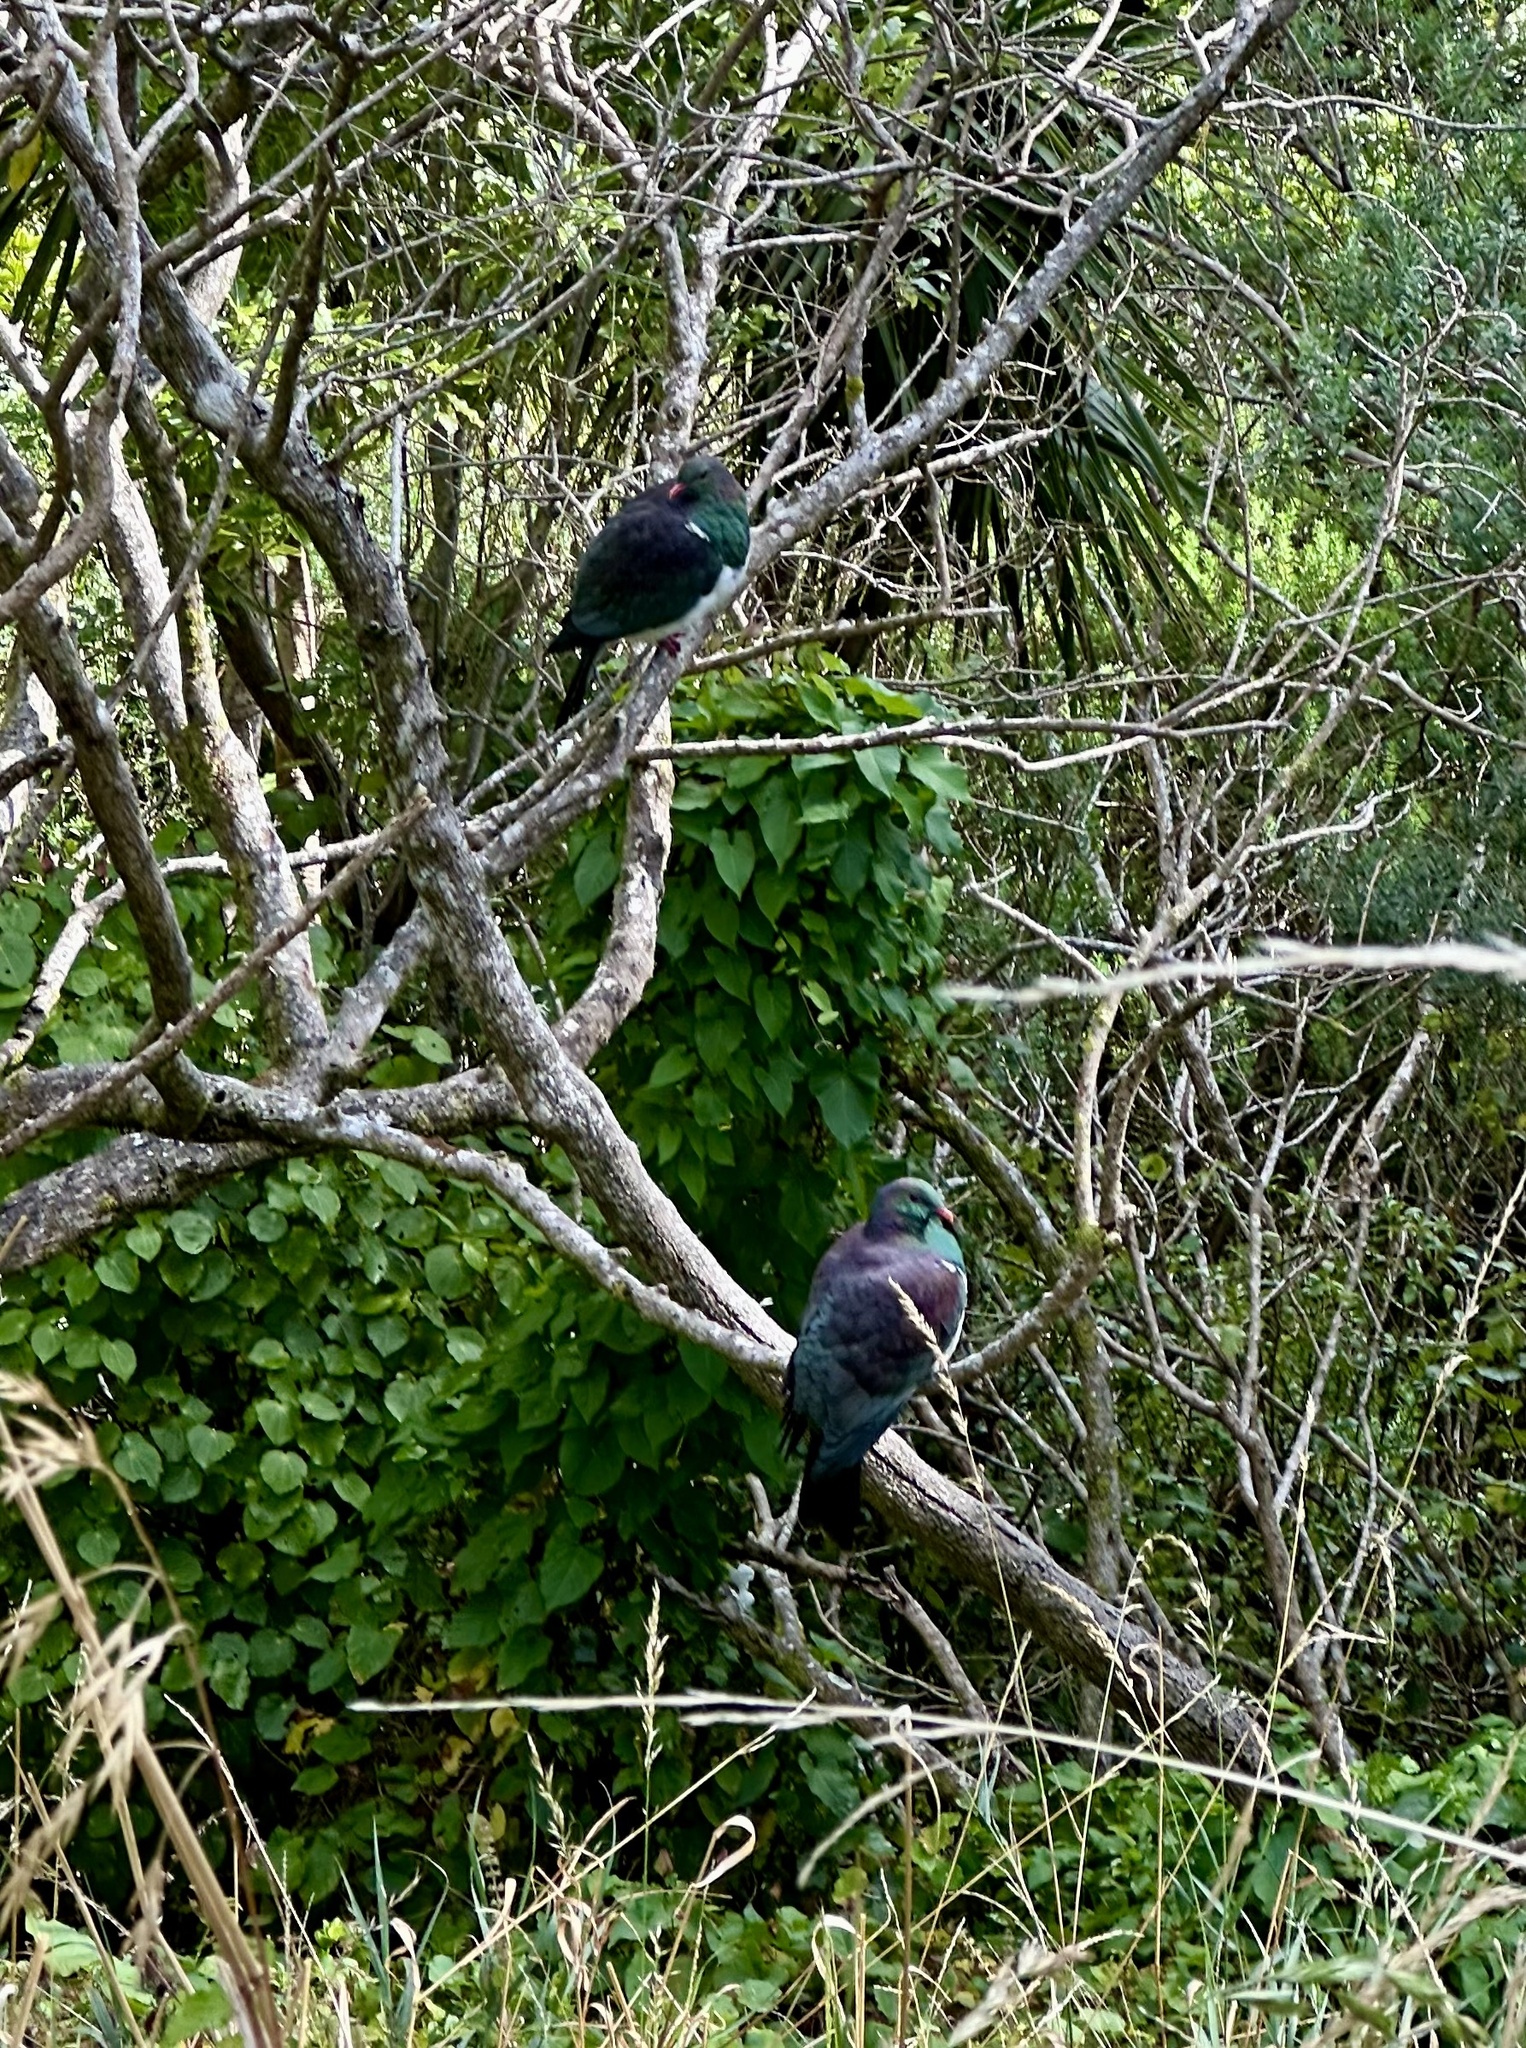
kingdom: Animalia
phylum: Chordata
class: Aves
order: Columbiformes
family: Columbidae
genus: Hemiphaga
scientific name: Hemiphaga novaeseelandiae
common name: New zealand pigeon
